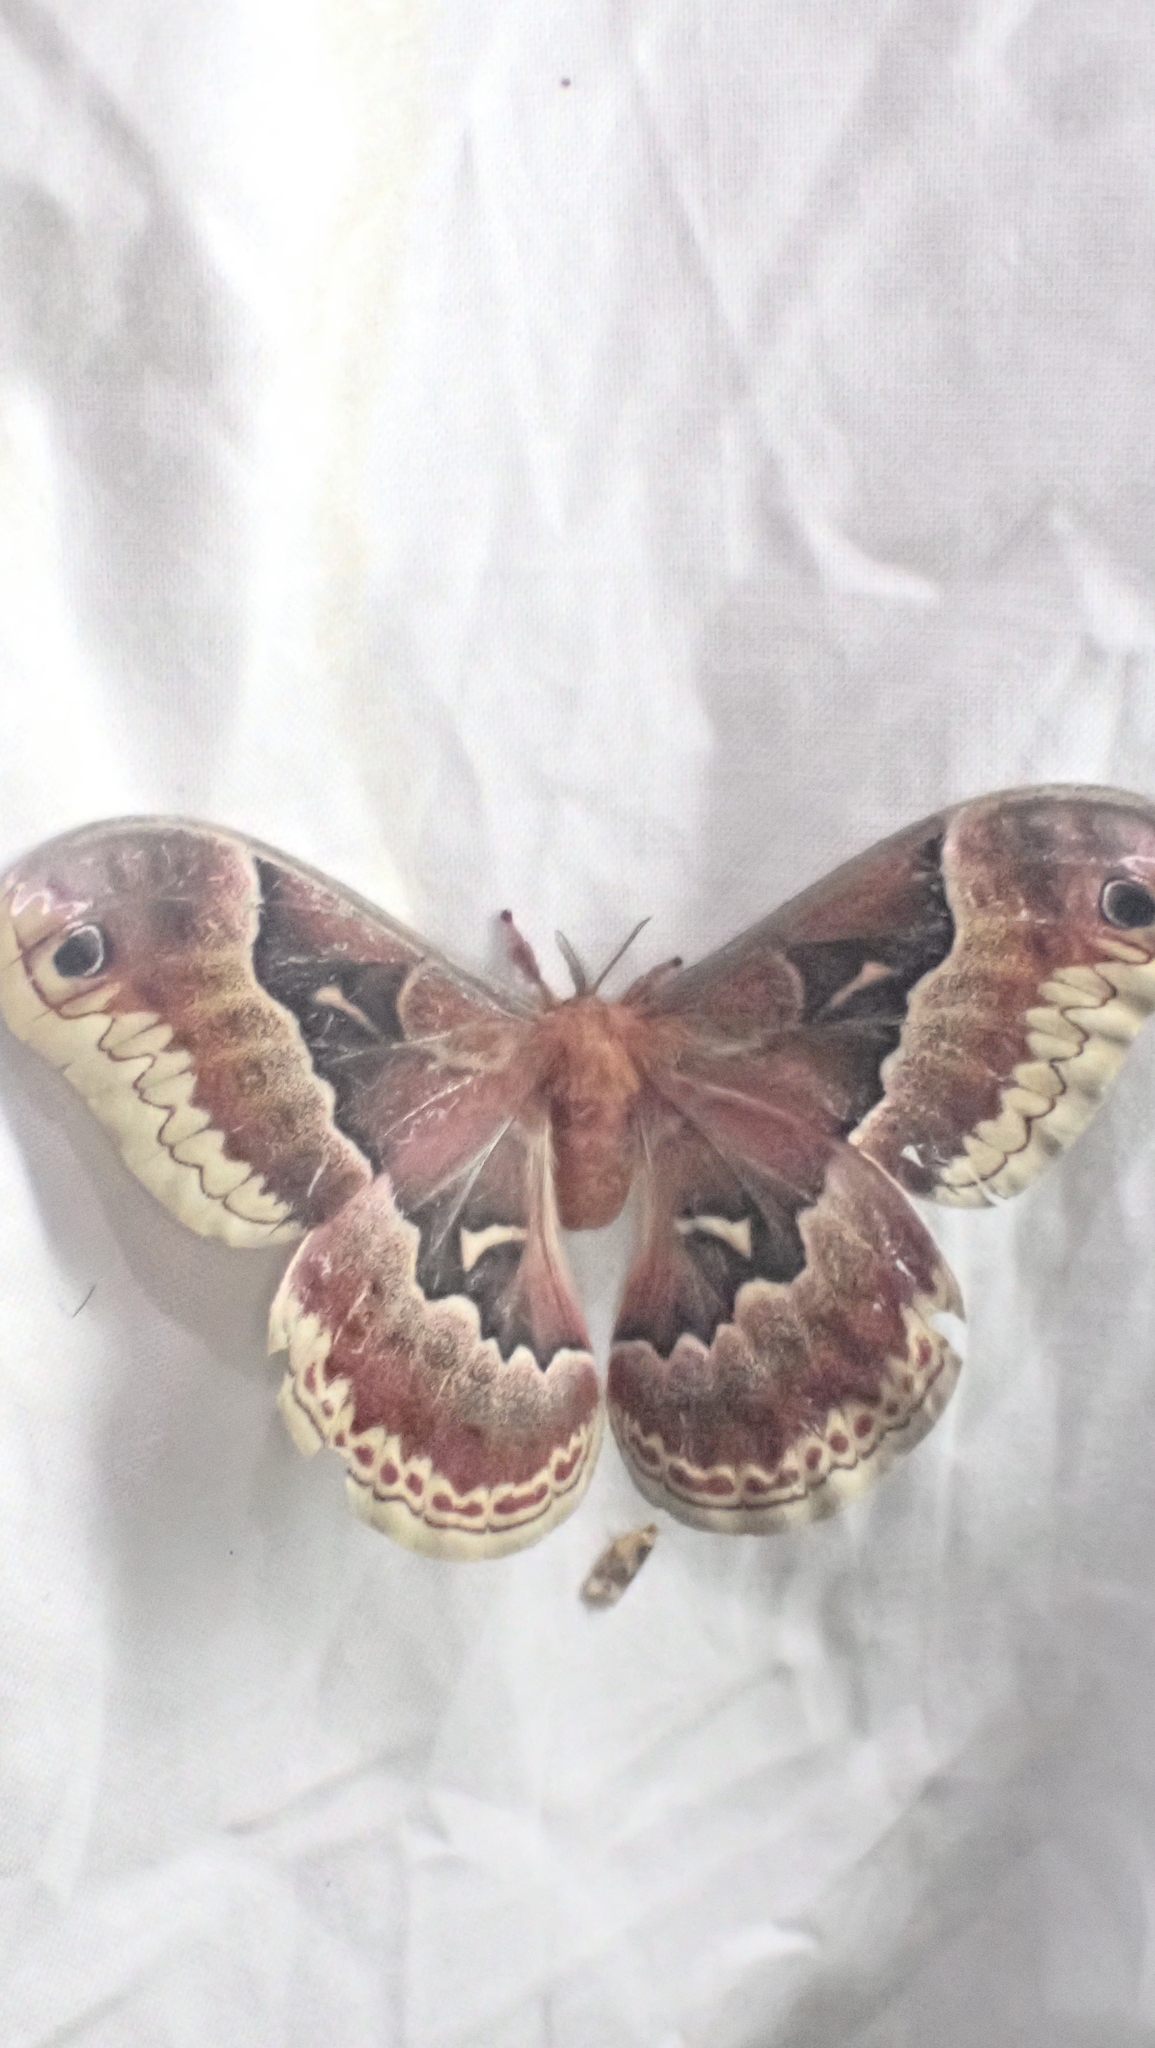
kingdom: Animalia
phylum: Arthropoda
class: Insecta
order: Lepidoptera
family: Saturniidae
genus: Callosamia
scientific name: Callosamia promethea
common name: Promethea silkmoth
